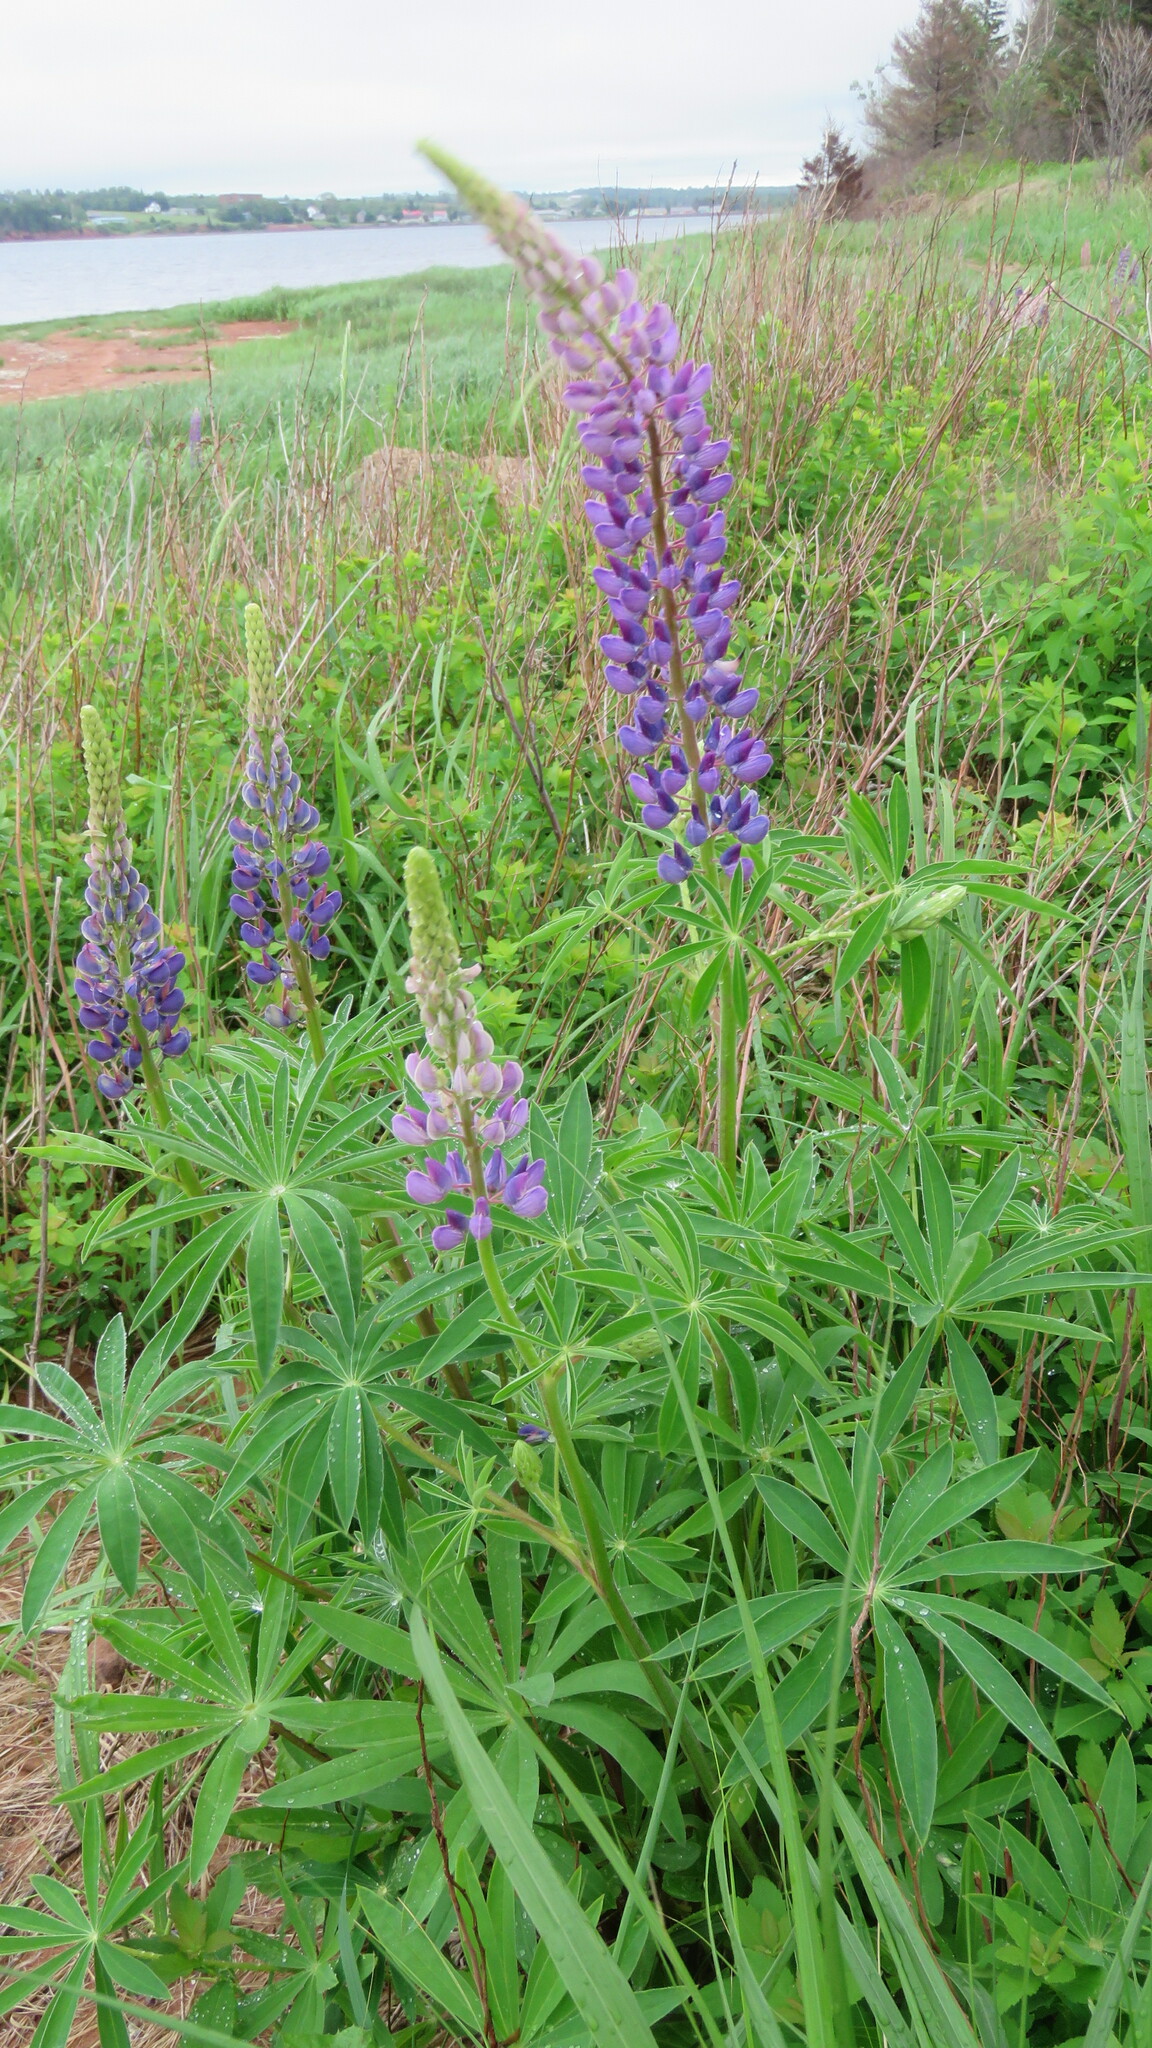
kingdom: Plantae
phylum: Tracheophyta
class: Magnoliopsida
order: Fabales
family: Fabaceae
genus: Lupinus
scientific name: Lupinus polyphyllus
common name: Garden lupin
